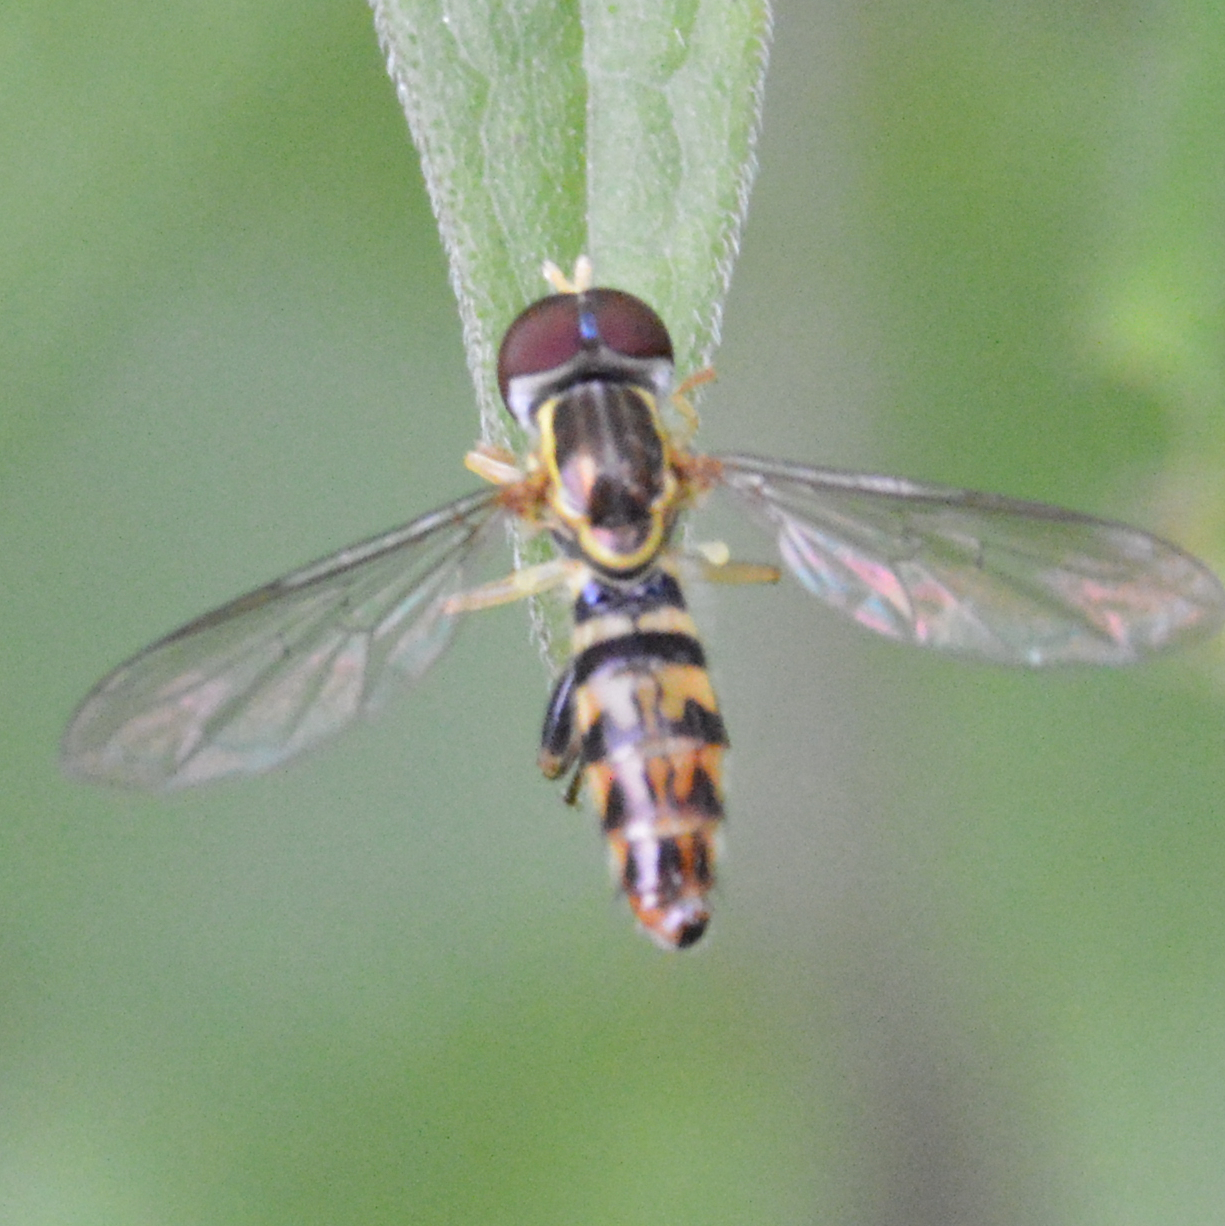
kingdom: Animalia
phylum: Arthropoda
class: Insecta
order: Diptera
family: Syrphidae
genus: Toxomerus
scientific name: Toxomerus geminatus
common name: Eastern calligrapher
